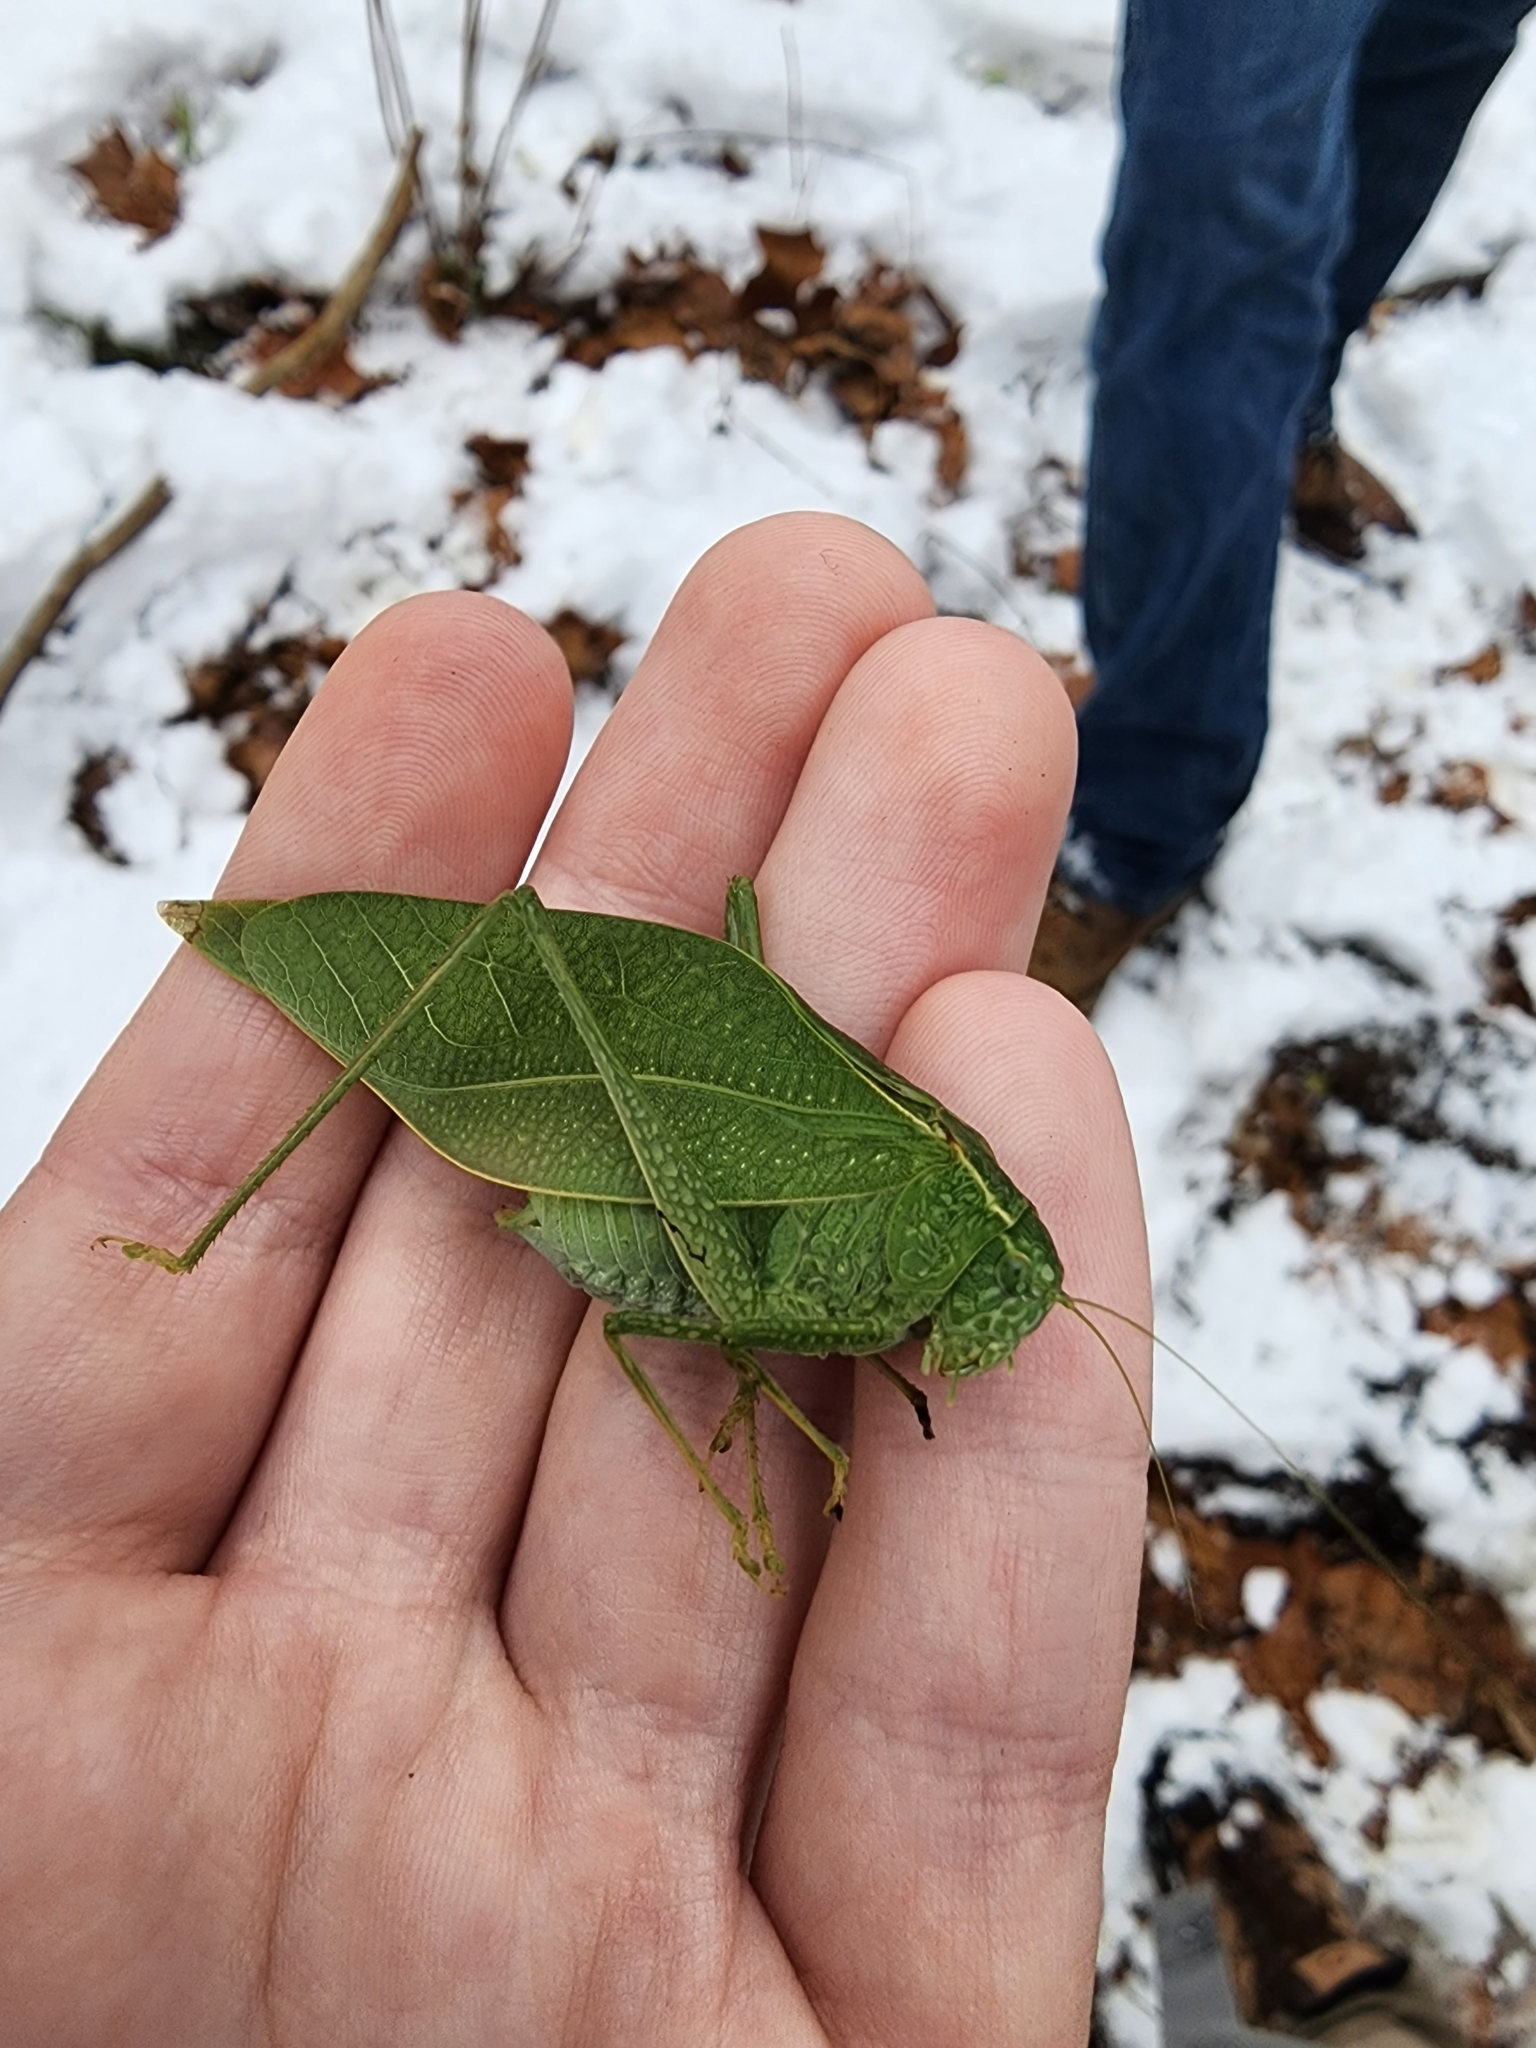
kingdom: Animalia
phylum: Arthropoda
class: Insecta
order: Orthoptera
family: Tettigoniidae
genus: Microcentrum
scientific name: Microcentrum rhombifolium
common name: Broad-winged katydid
